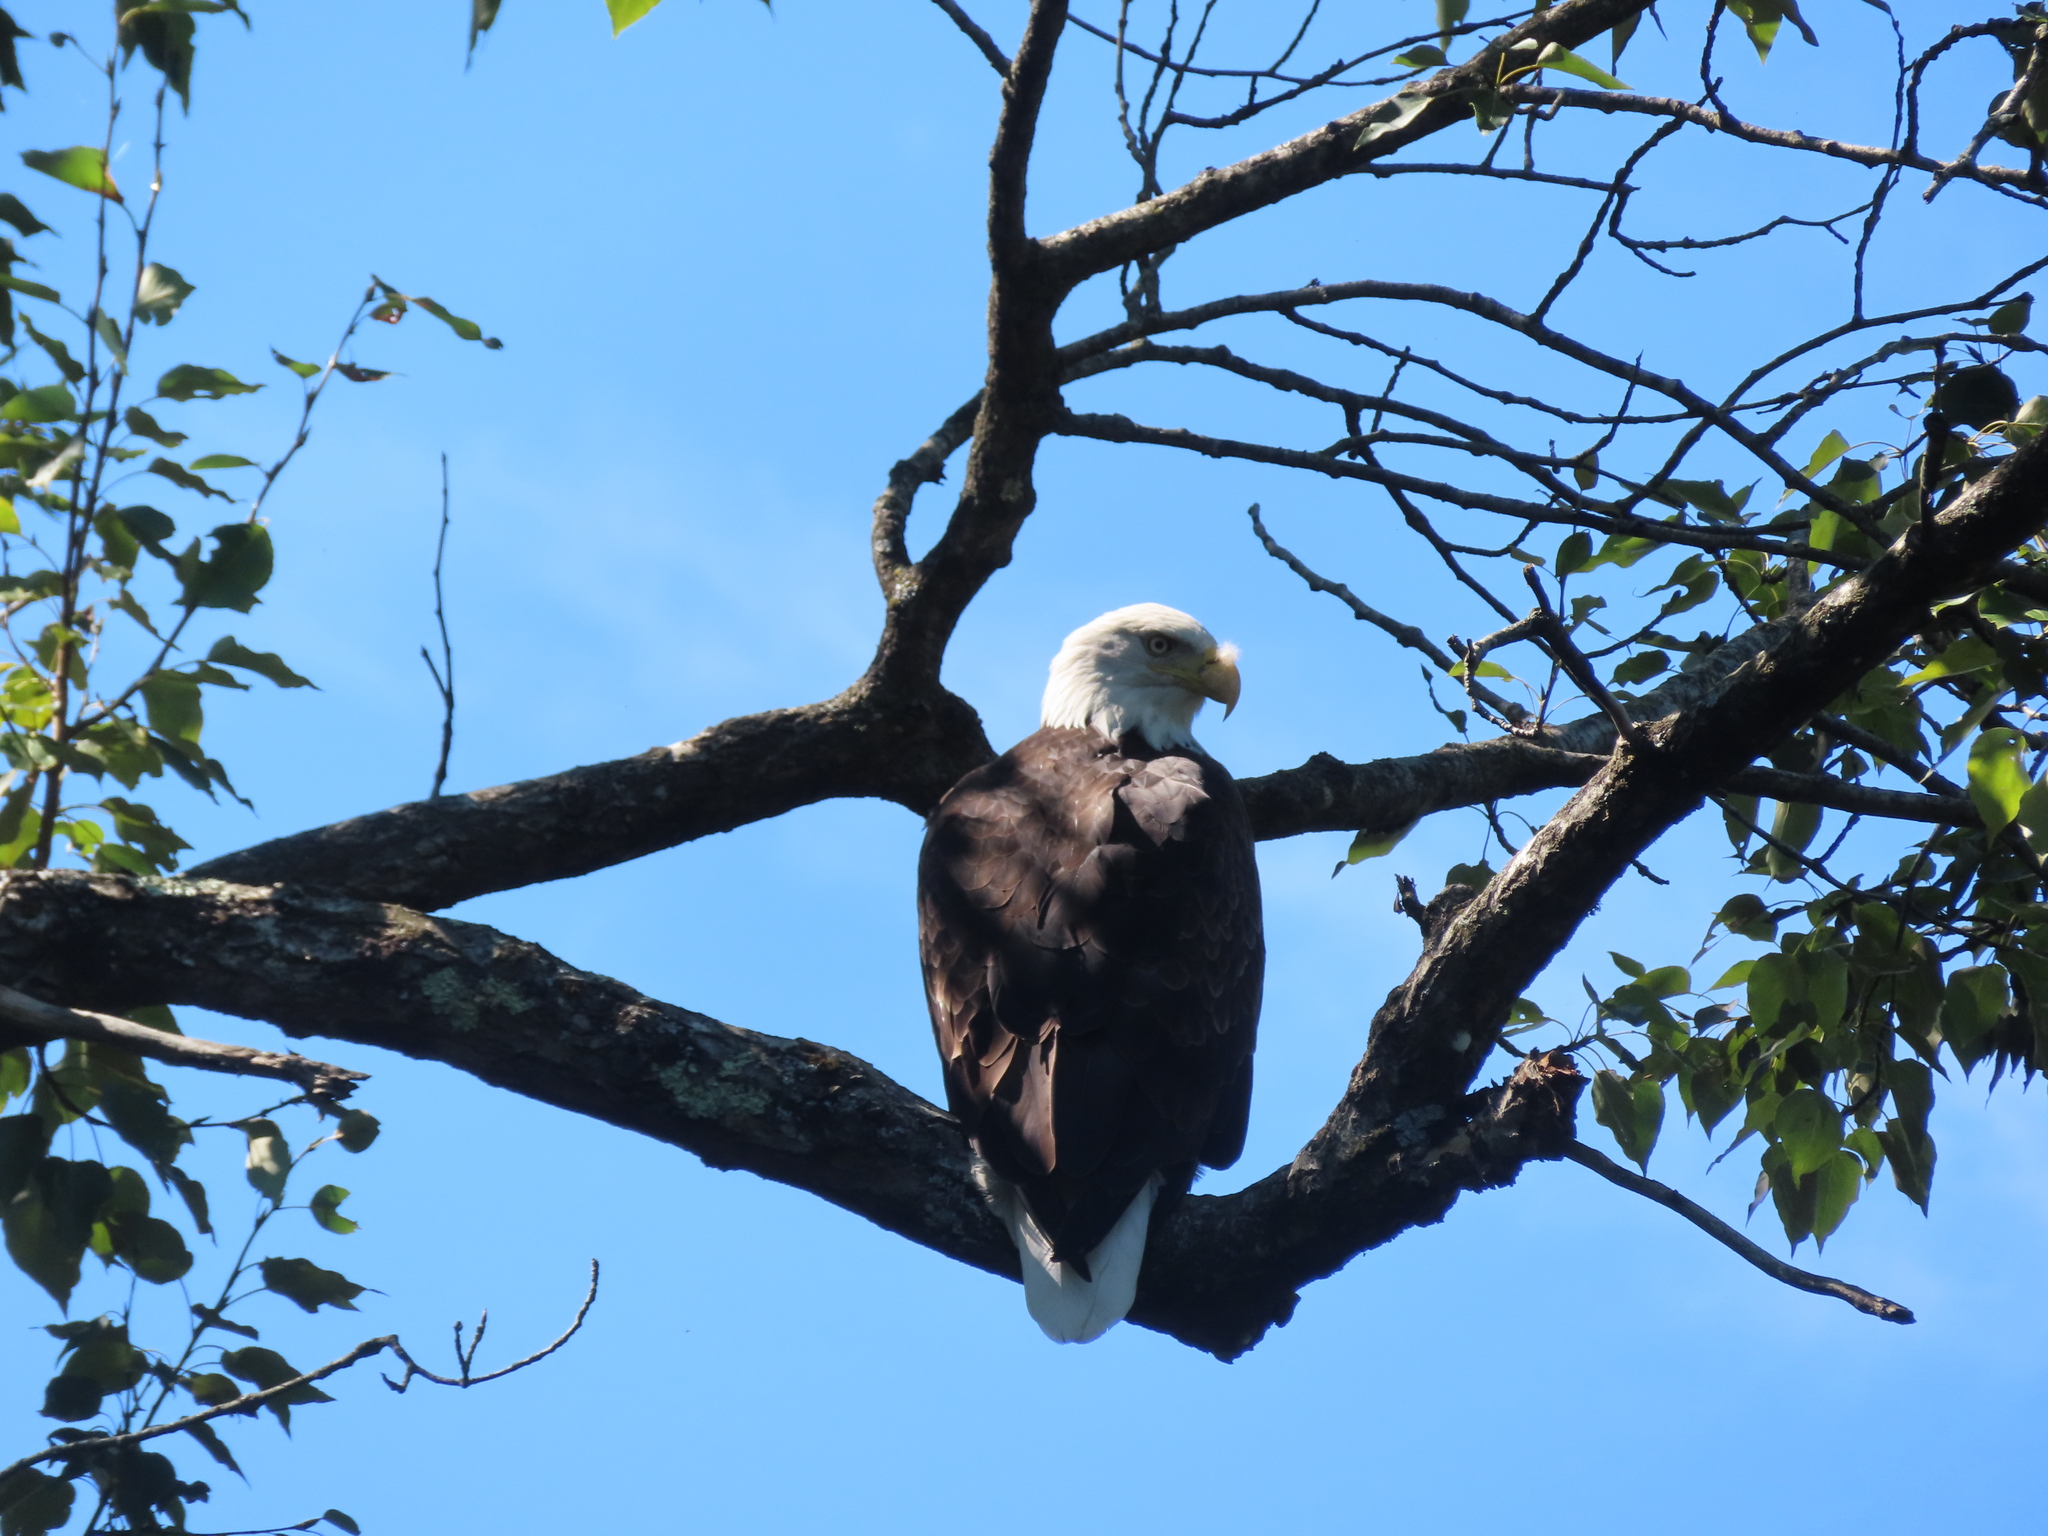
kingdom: Animalia
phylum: Chordata
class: Aves
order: Accipitriformes
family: Accipitridae
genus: Haliaeetus
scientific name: Haliaeetus leucocephalus
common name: Bald eagle
